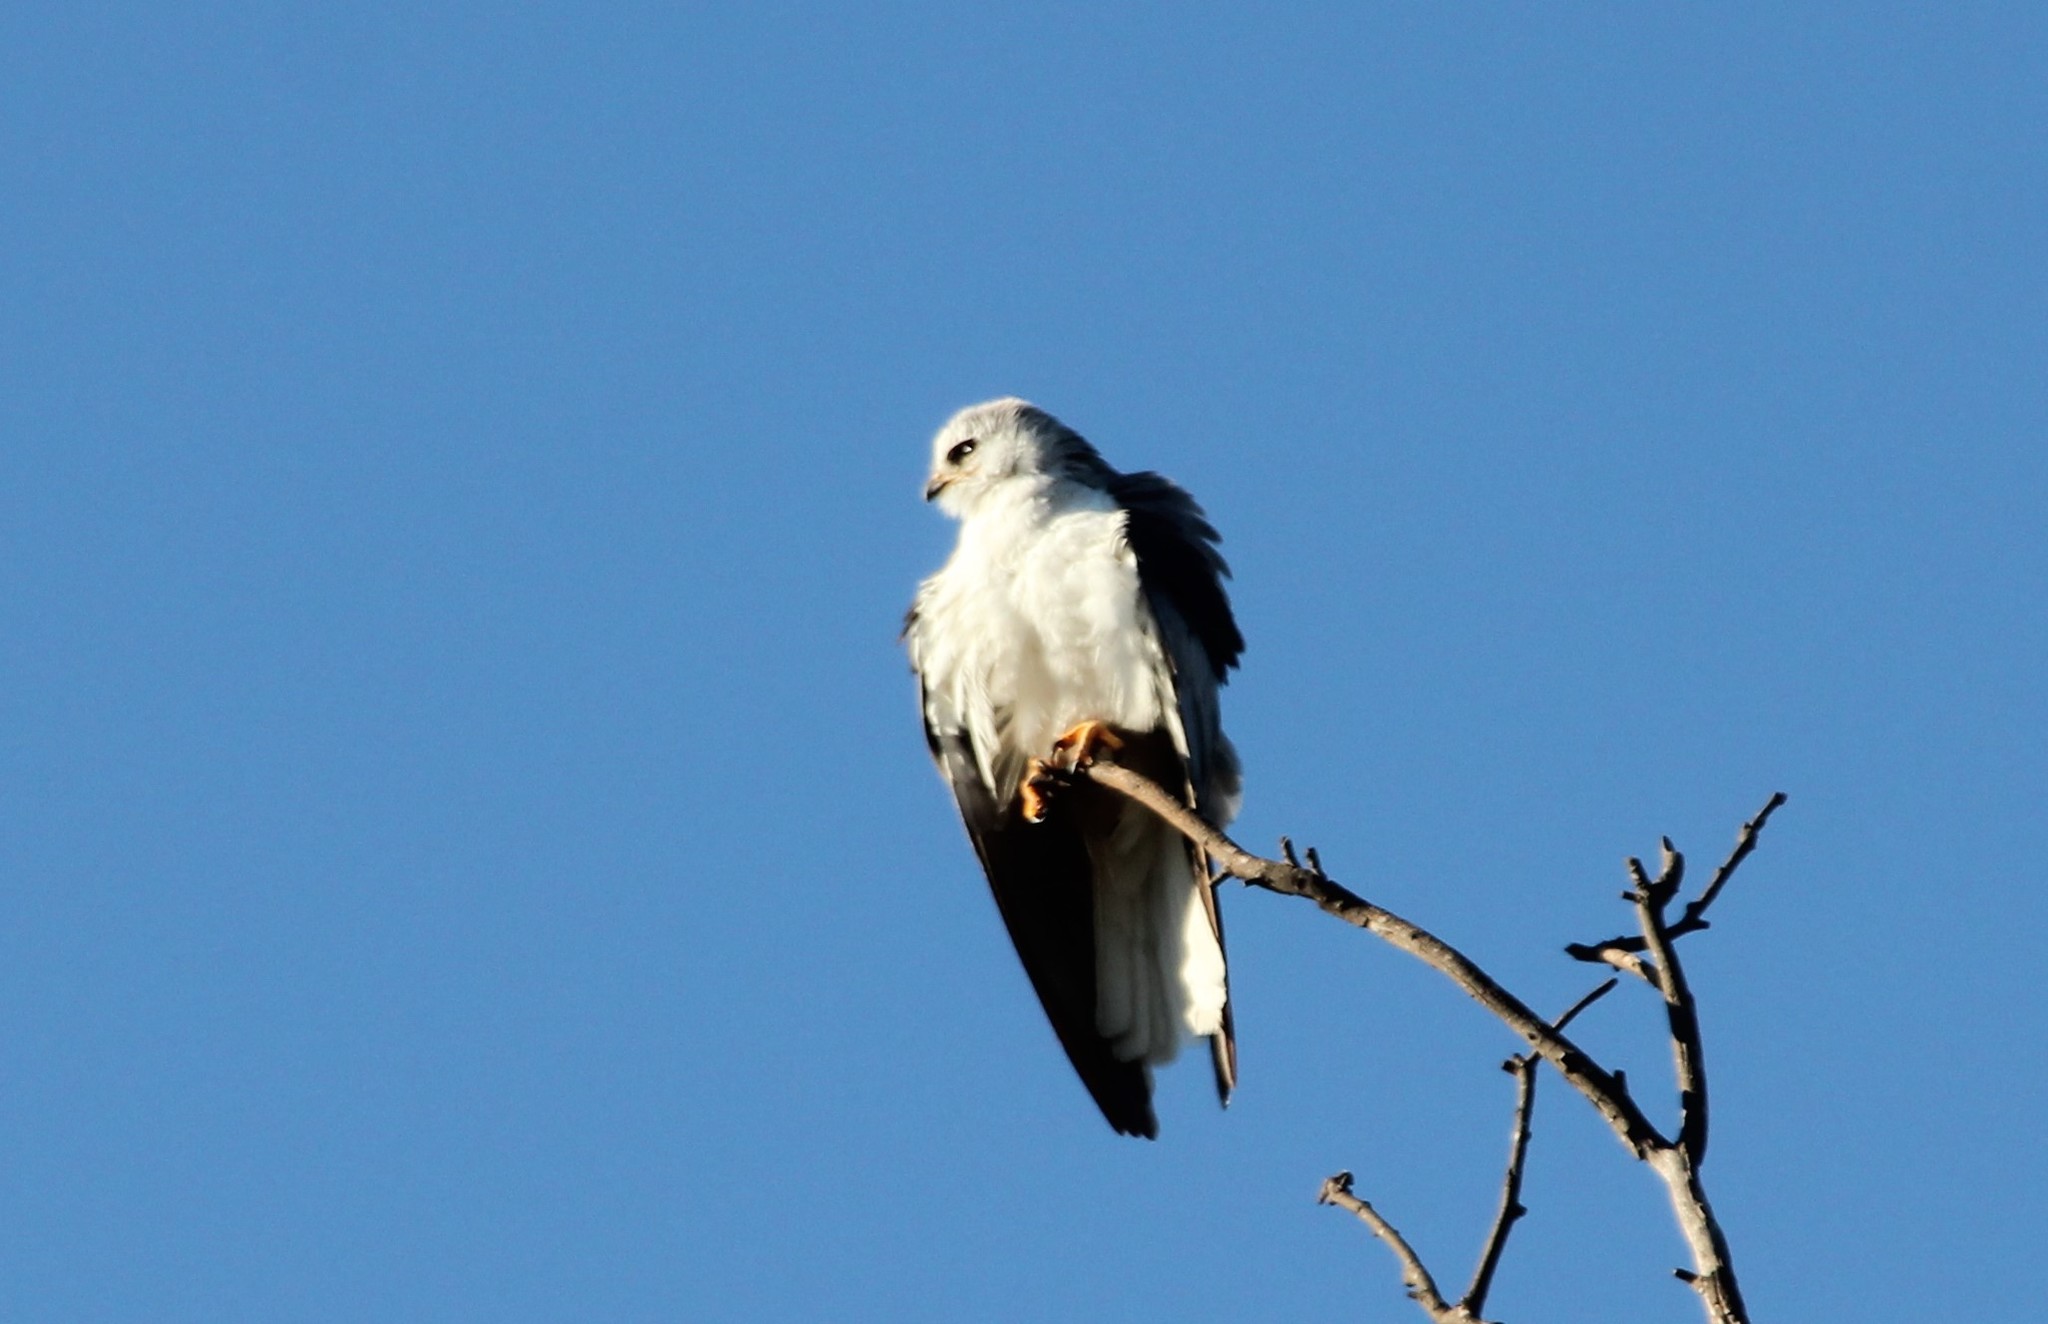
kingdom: Animalia
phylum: Chordata
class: Aves
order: Accipitriformes
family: Accipitridae
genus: Elanus
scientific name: Elanus leucurus
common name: White-tailed kite
